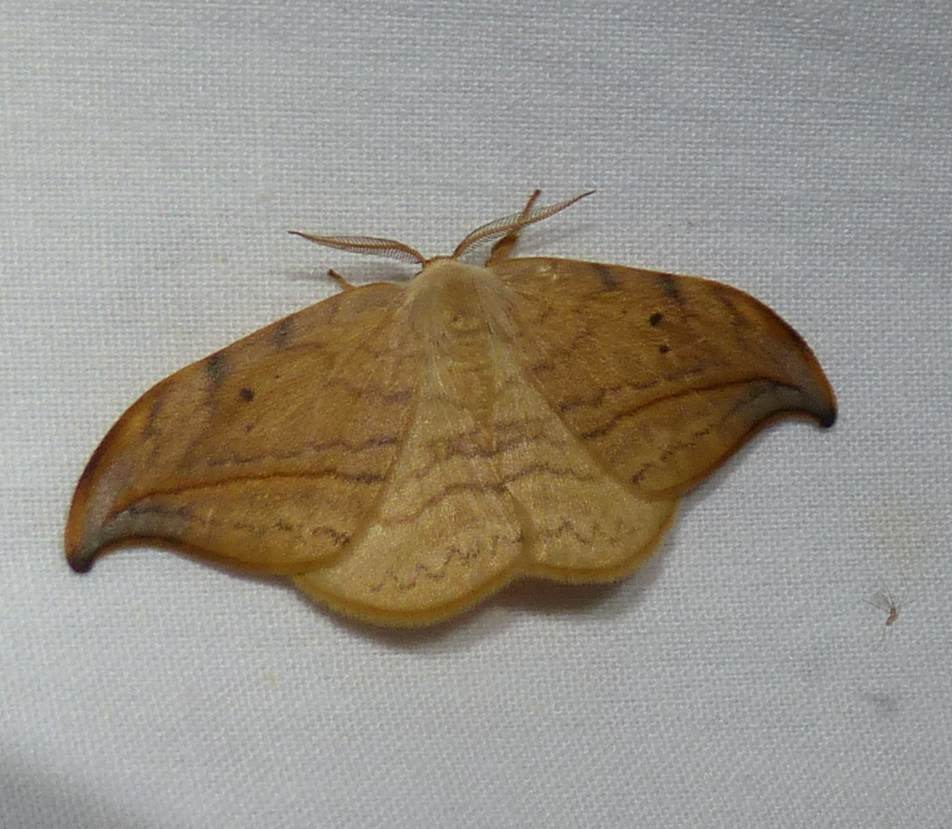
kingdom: Animalia
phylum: Arthropoda
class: Insecta
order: Lepidoptera
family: Drepanidae
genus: Drepana
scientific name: Drepana arcuata
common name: Arched hooktip moth
